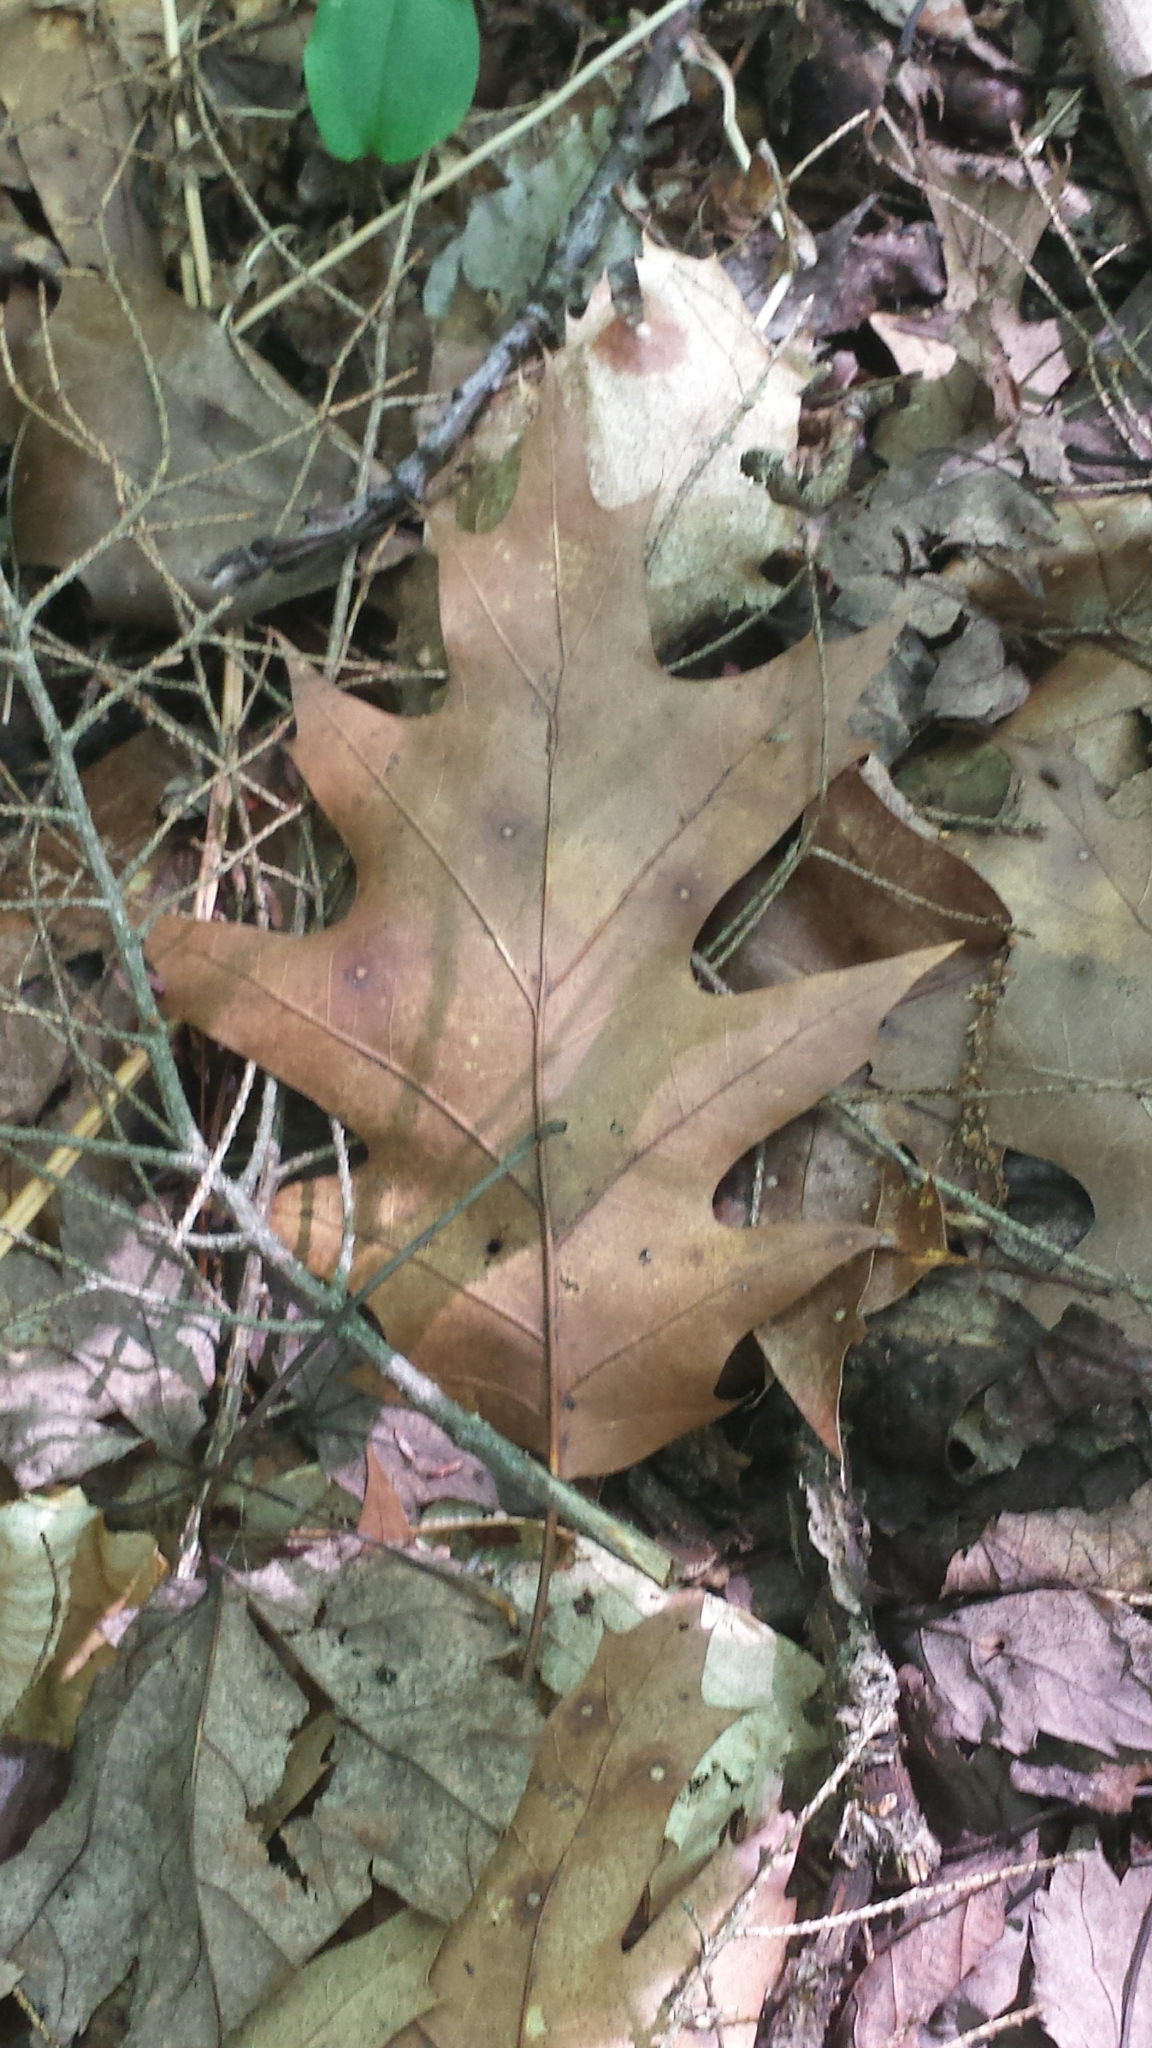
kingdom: Plantae
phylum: Tracheophyta
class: Magnoliopsida
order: Fagales
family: Fagaceae
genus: Quercus
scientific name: Quercus rubra
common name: Red oak
